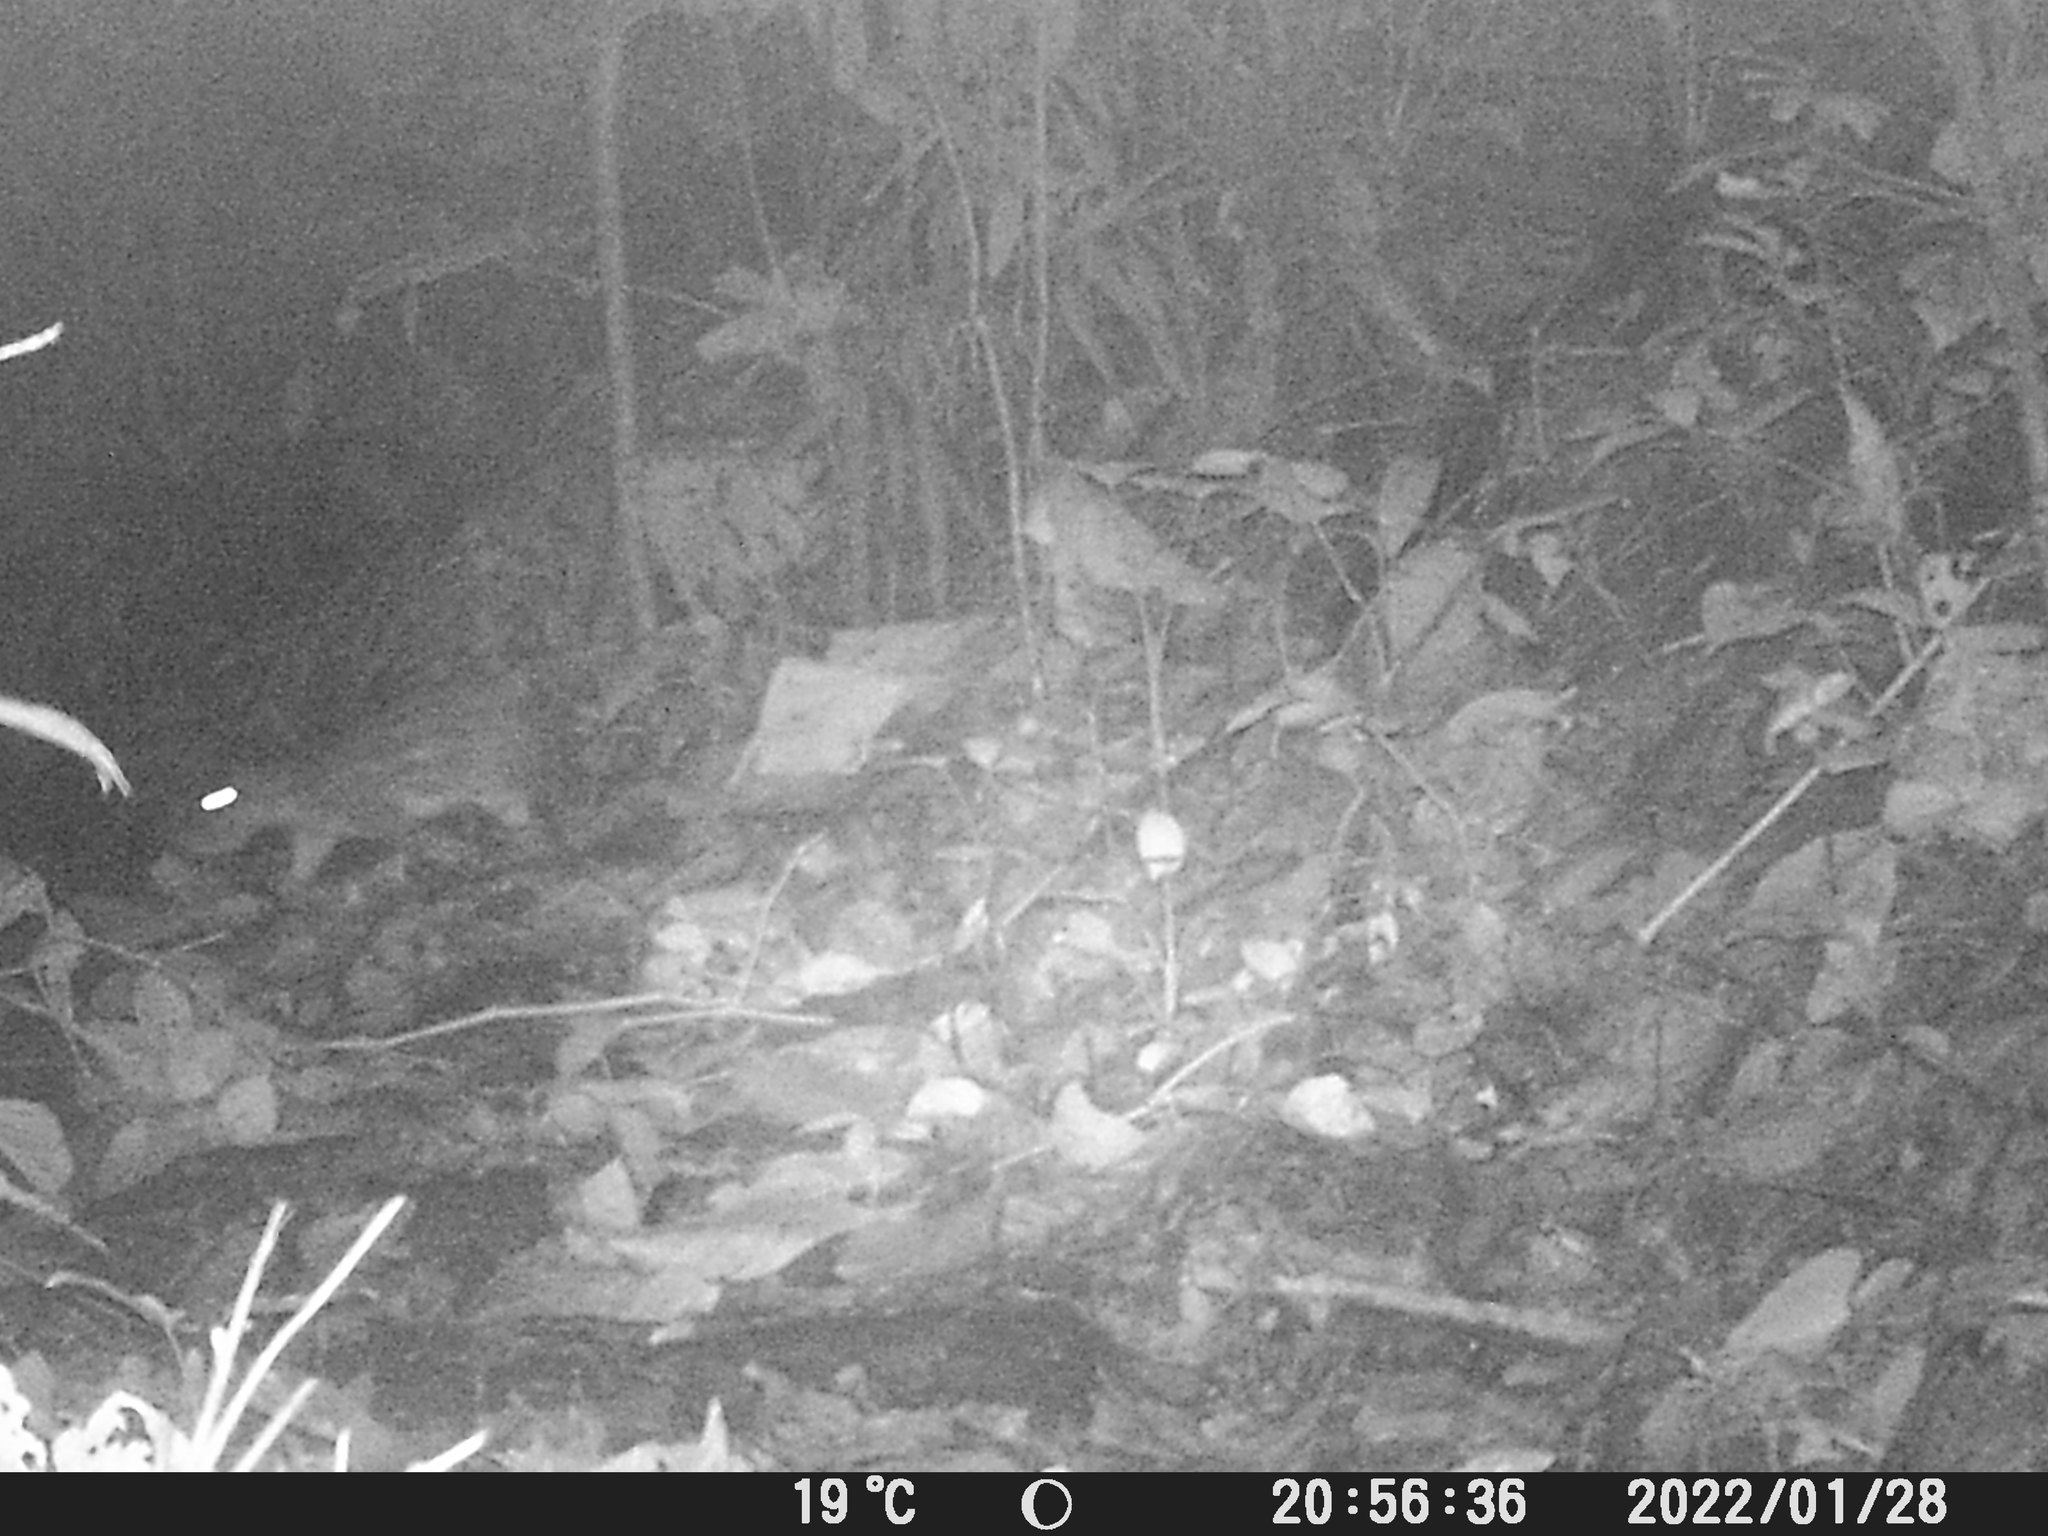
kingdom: Animalia
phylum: Chordata
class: Mammalia
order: Rodentia
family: Cuniculidae
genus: Cuniculus
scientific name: Cuniculus paca
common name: Lowland paca
